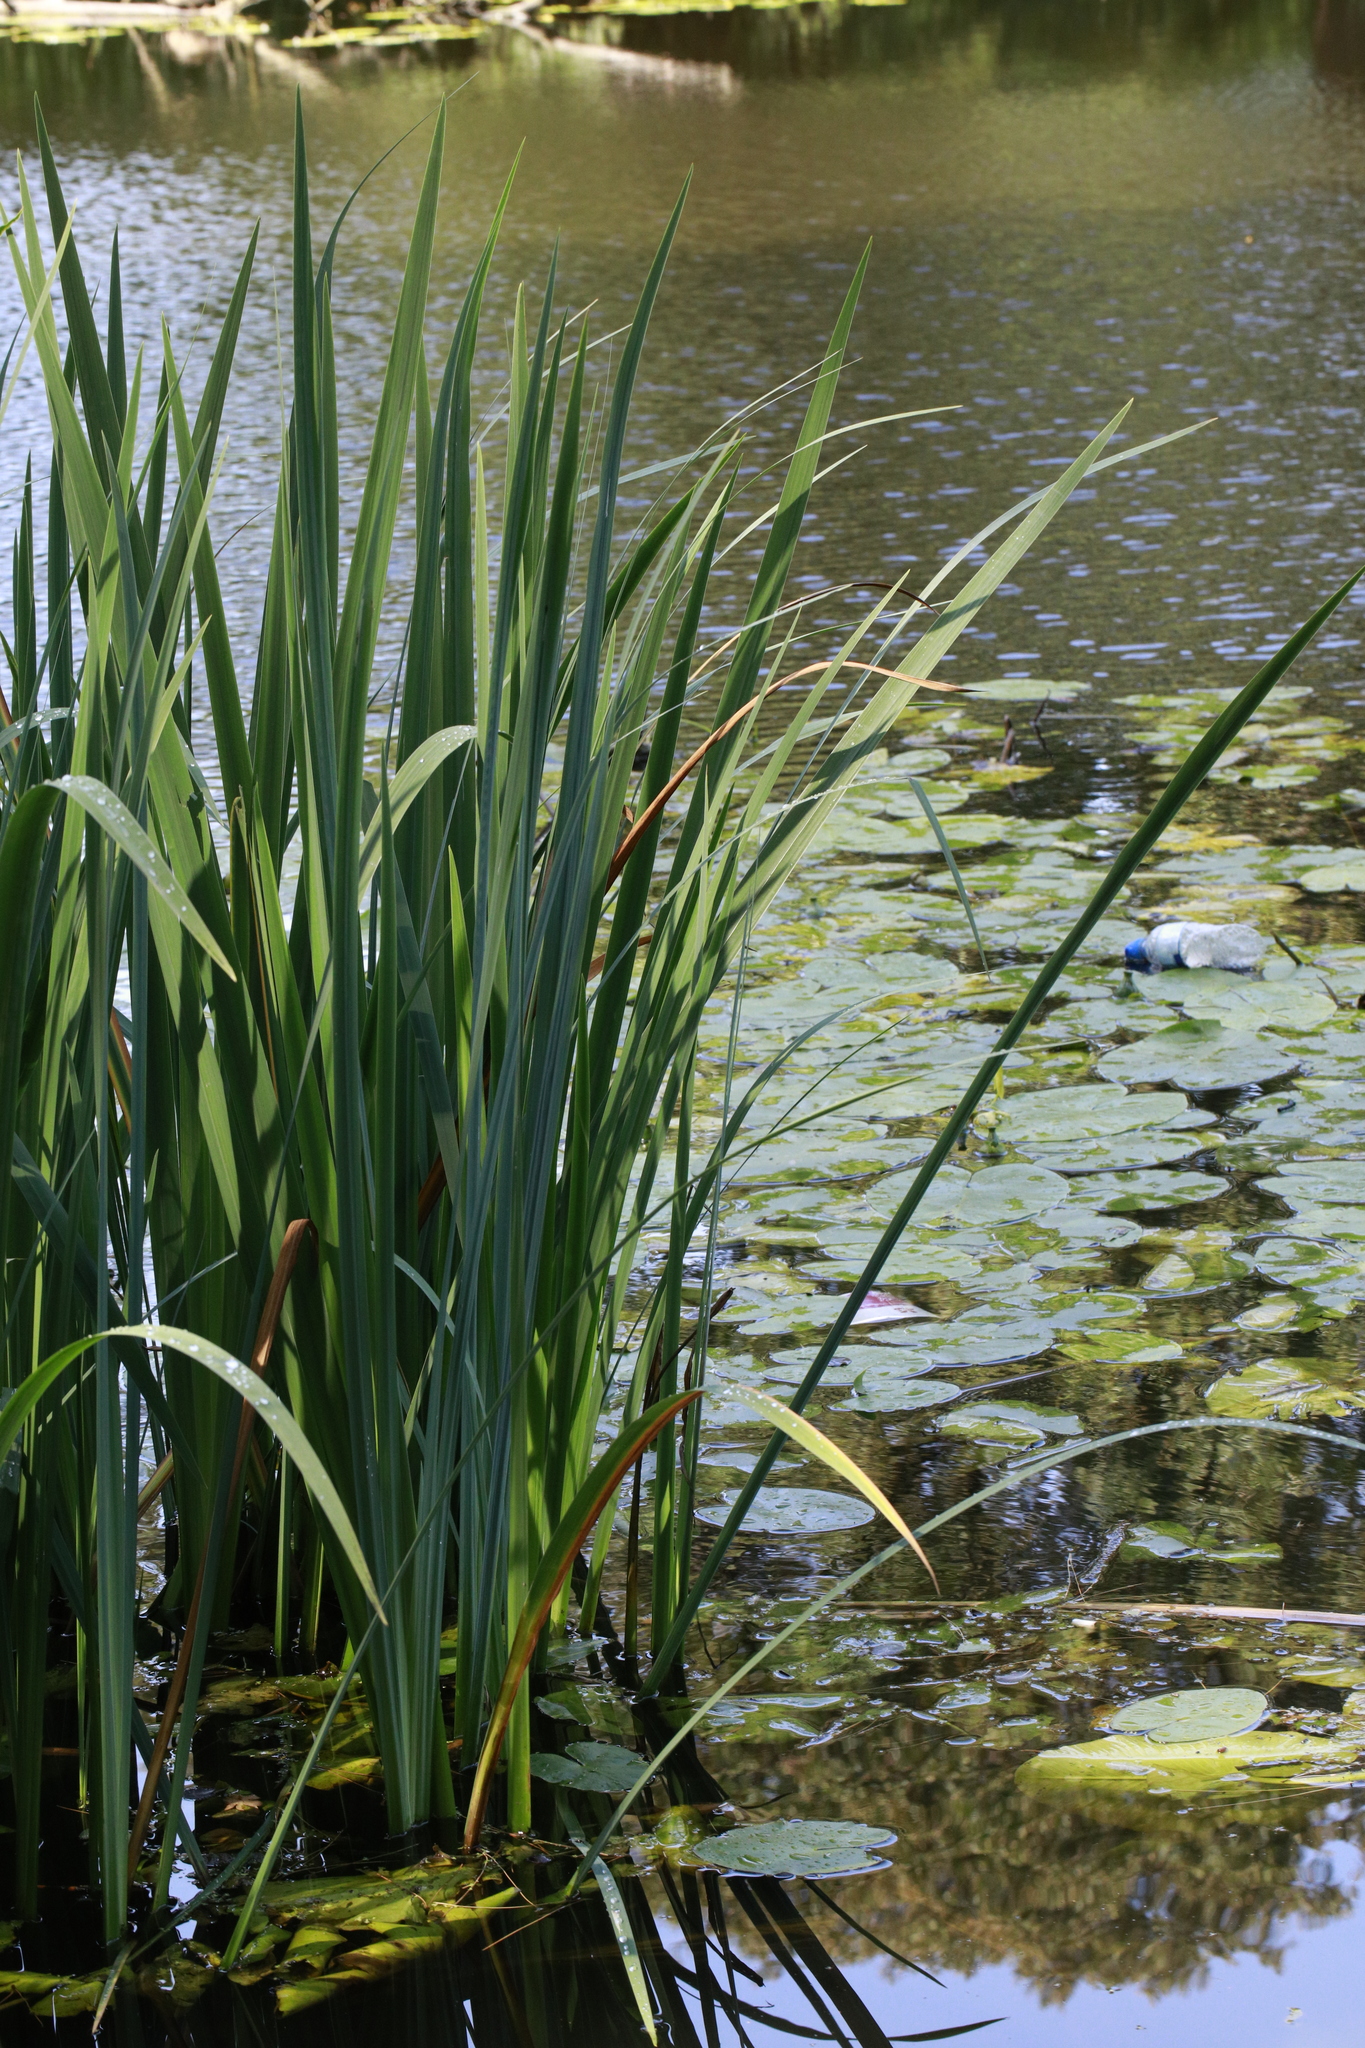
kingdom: Plantae
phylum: Tracheophyta
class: Liliopsida
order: Asparagales
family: Iridaceae
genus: Iris
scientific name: Iris pseudacorus
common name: Yellow flag
